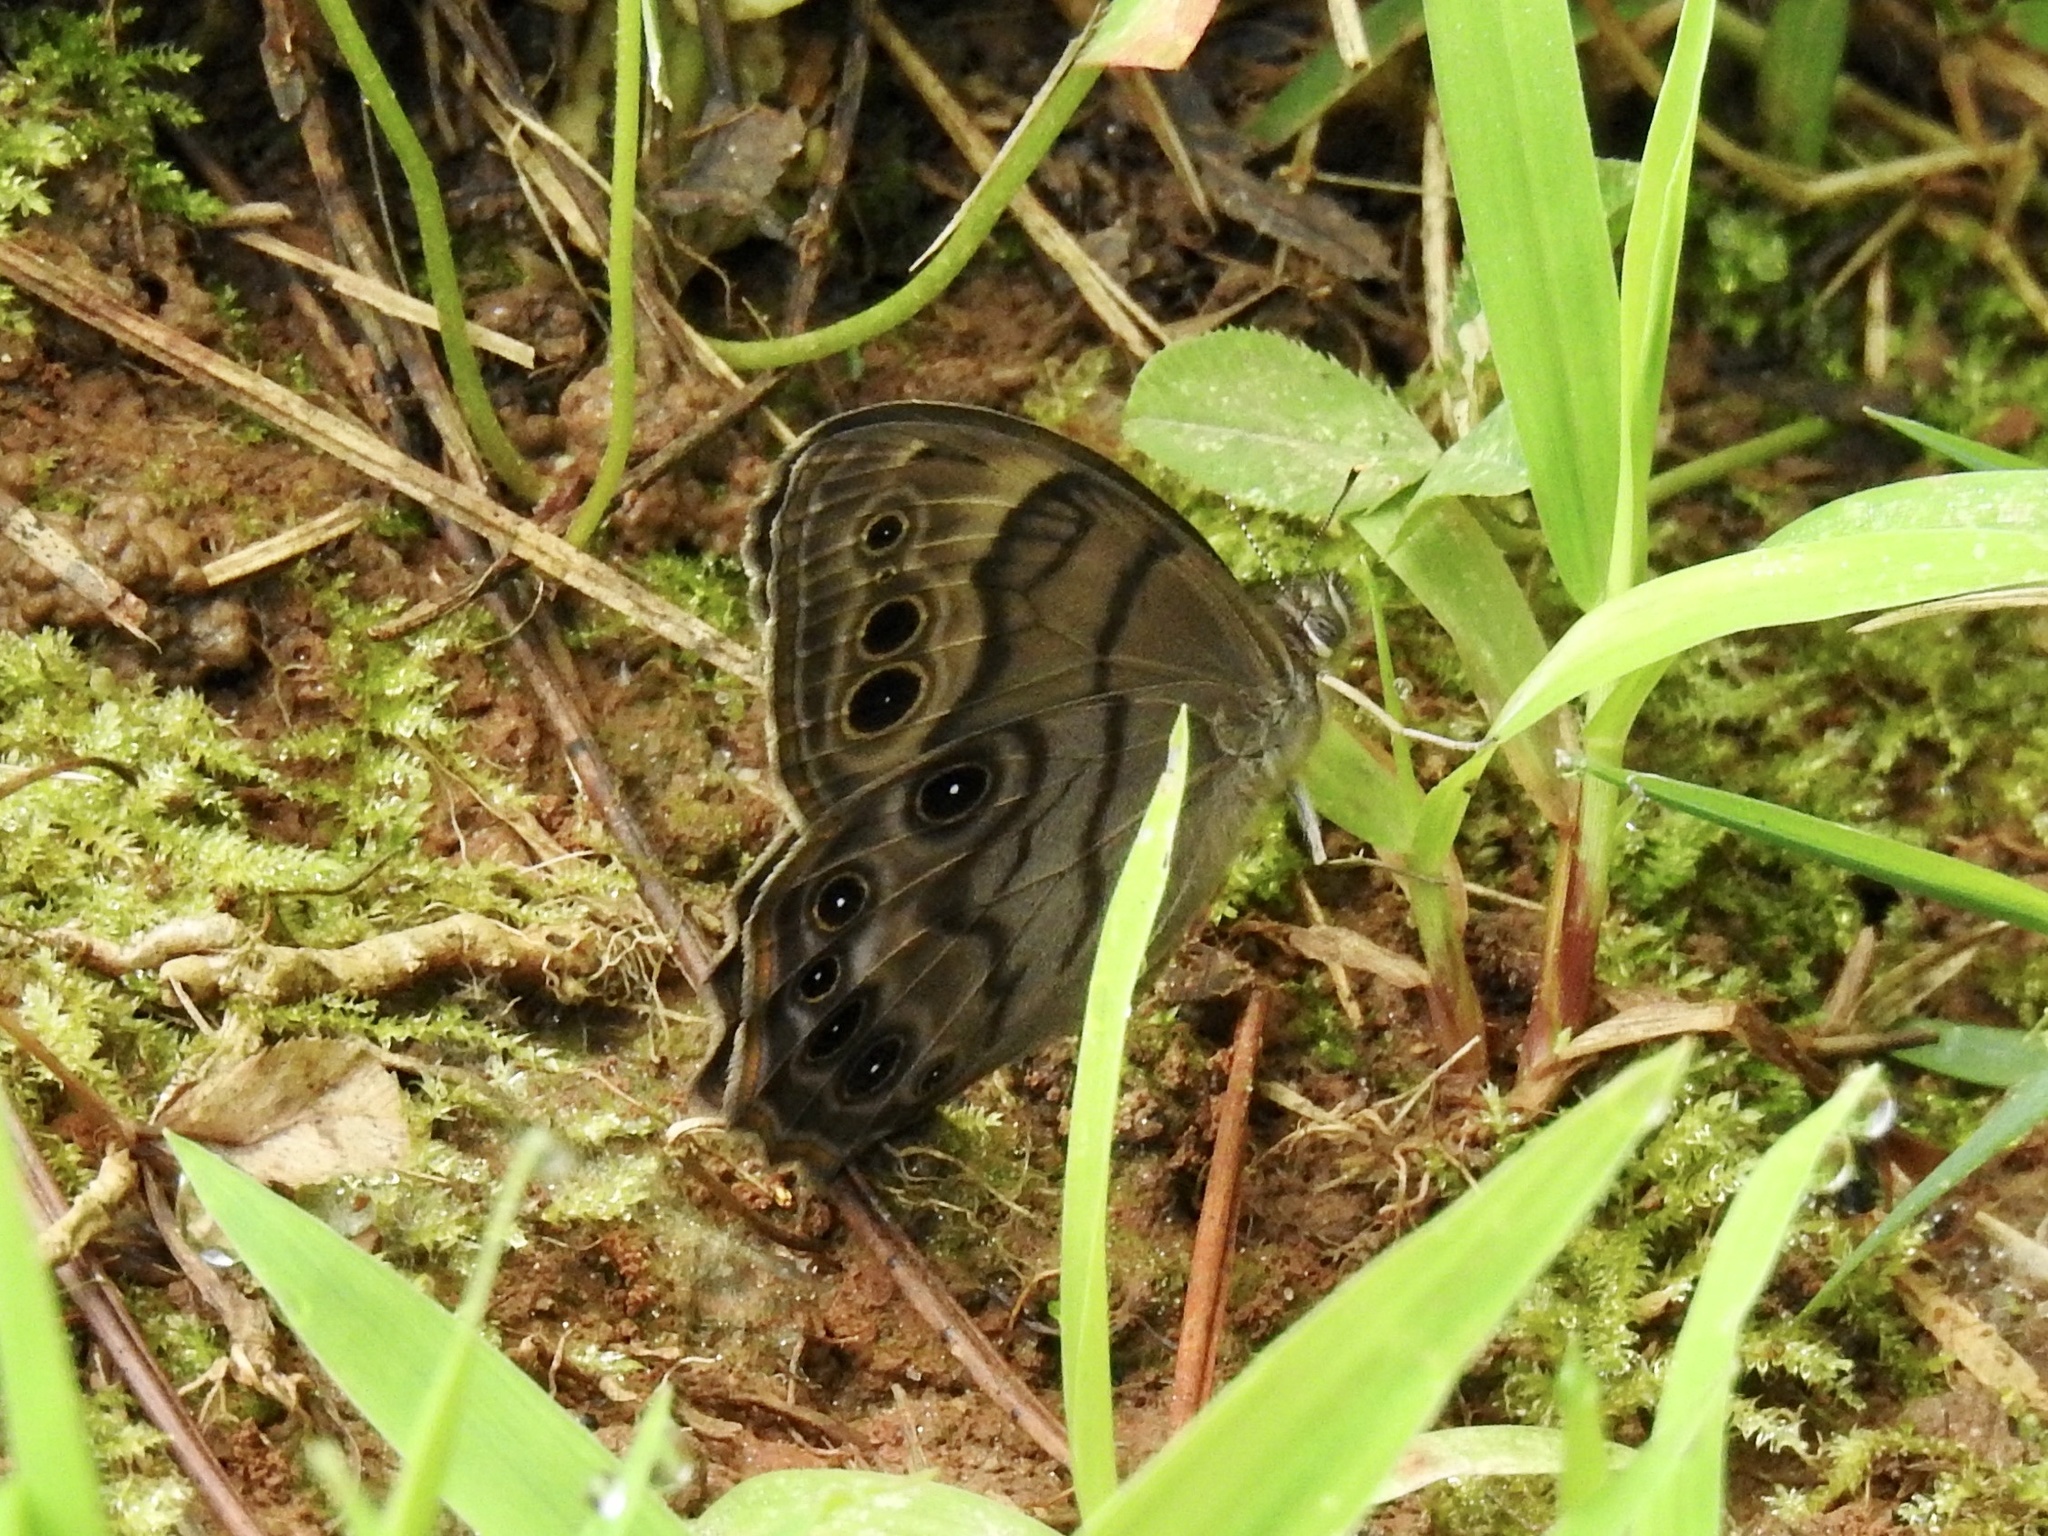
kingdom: Animalia
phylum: Arthropoda
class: Insecta
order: Lepidoptera
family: Nymphalidae
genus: Lethe
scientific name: Lethe anthedon
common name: Northern pearly-eye
